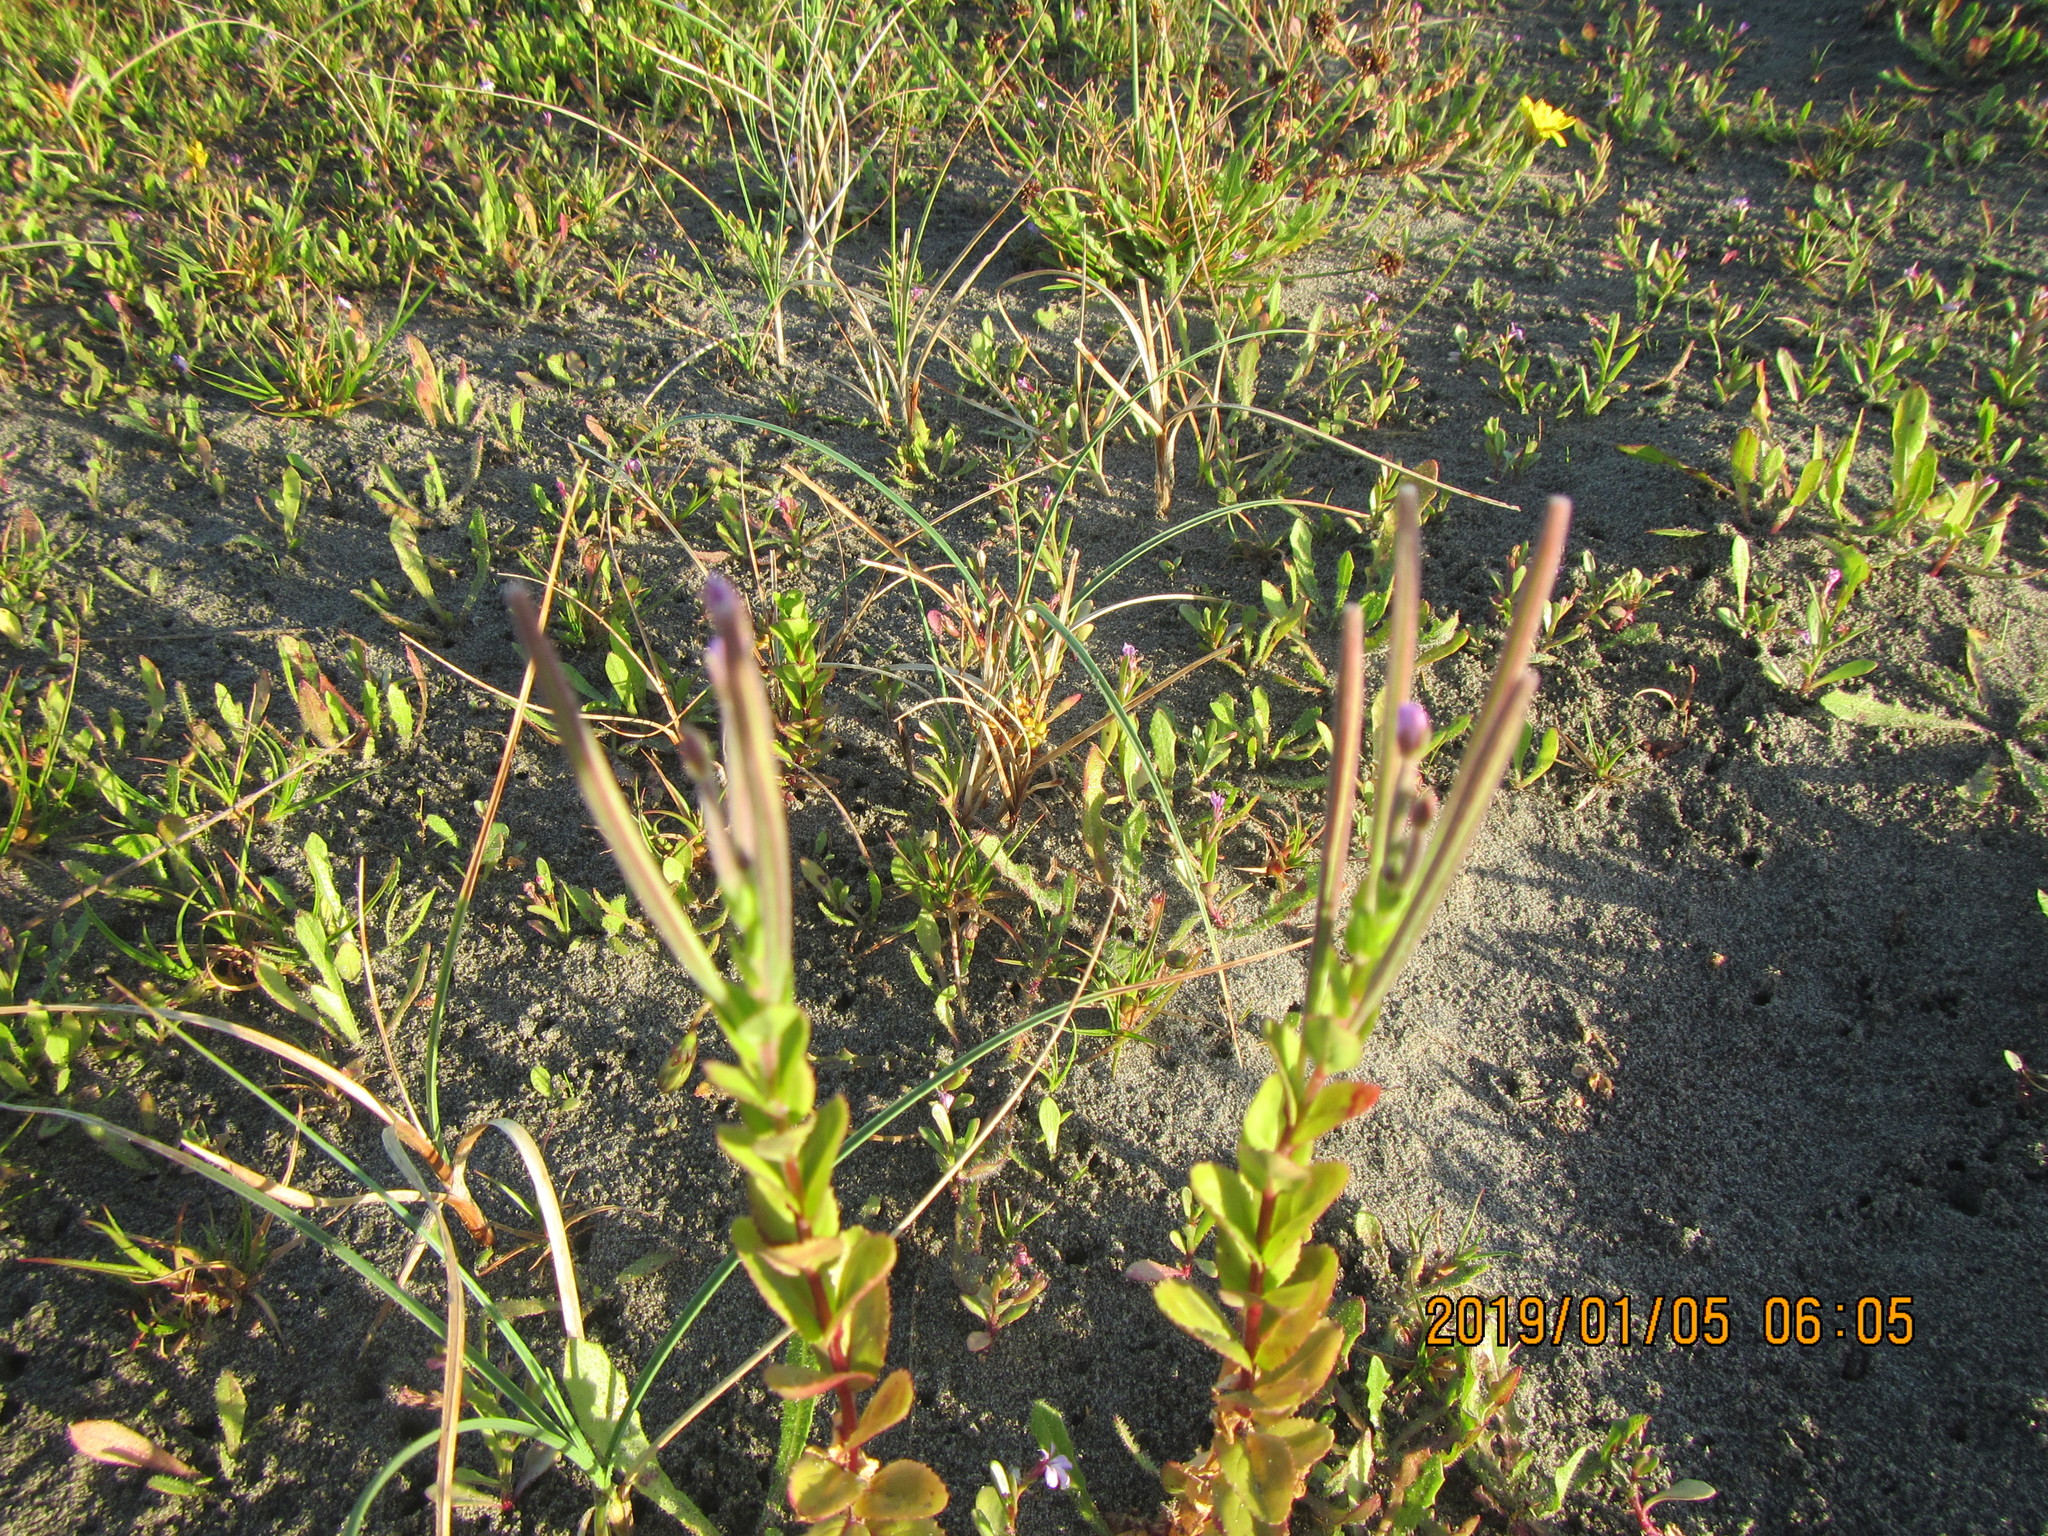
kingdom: Plantae
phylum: Tracheophyta
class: Magnoliopsida
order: Myrtales
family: Onagraceae
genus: Epilobium
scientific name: Epilobium billardiereanum
